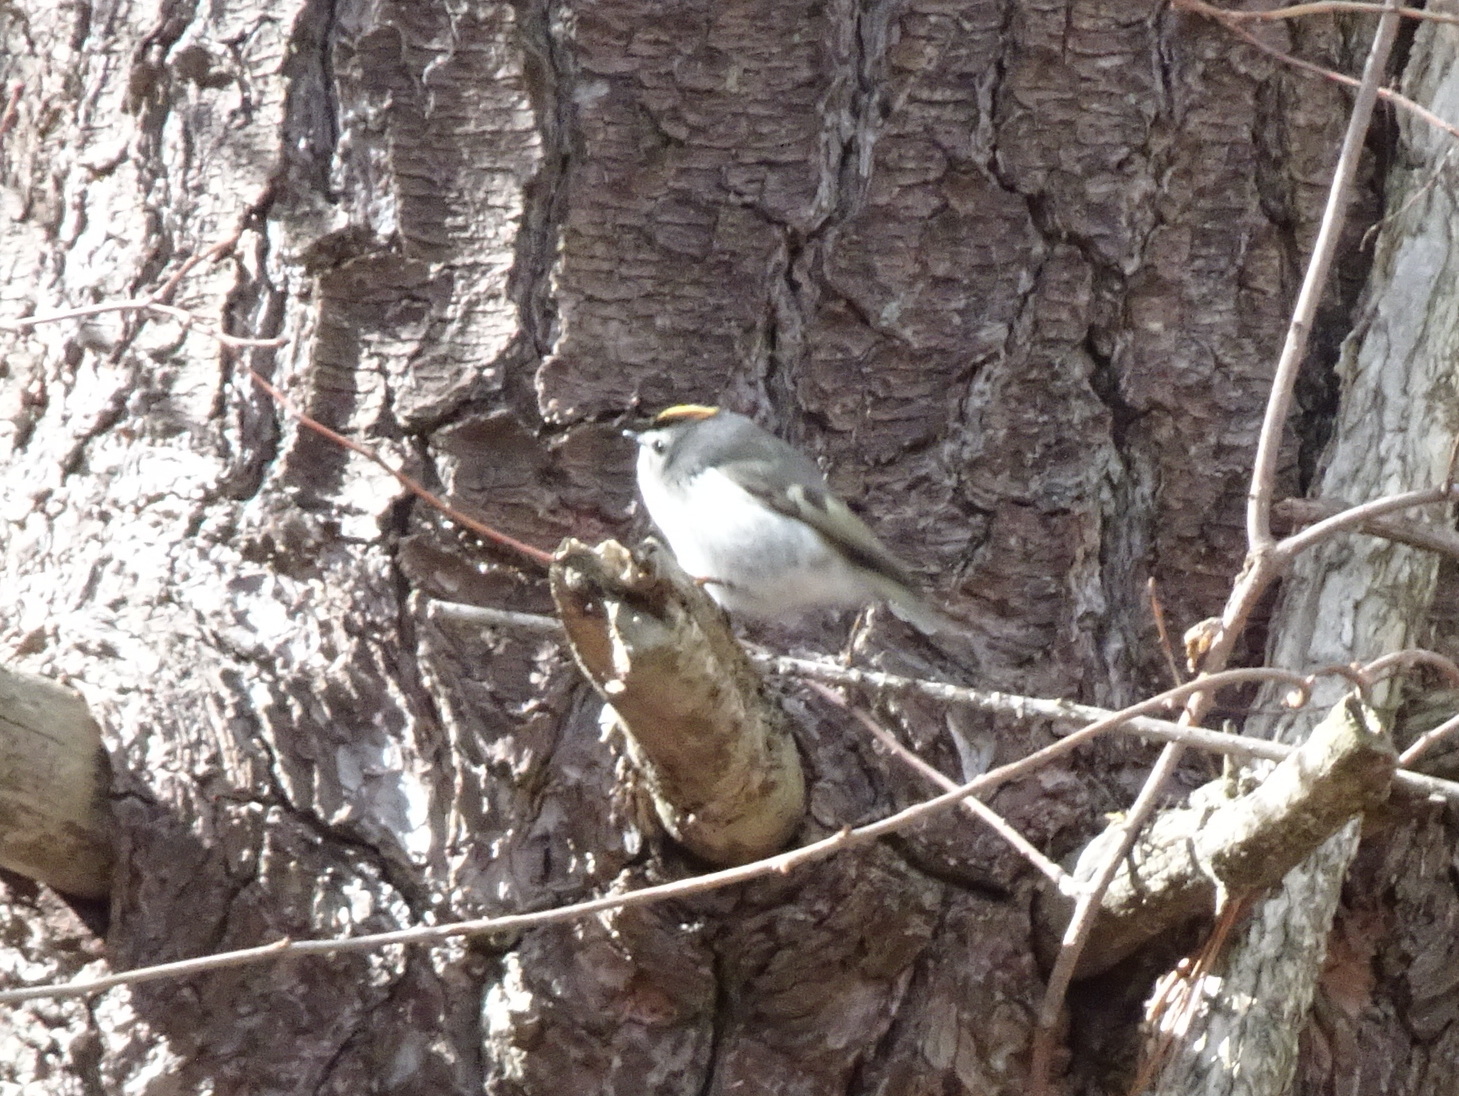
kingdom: Animalia
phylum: Chordata
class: Aves
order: Passeriformes
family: Regulidae
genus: Regulus
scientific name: Regulus satrapa
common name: Golden-crowned kinglet
